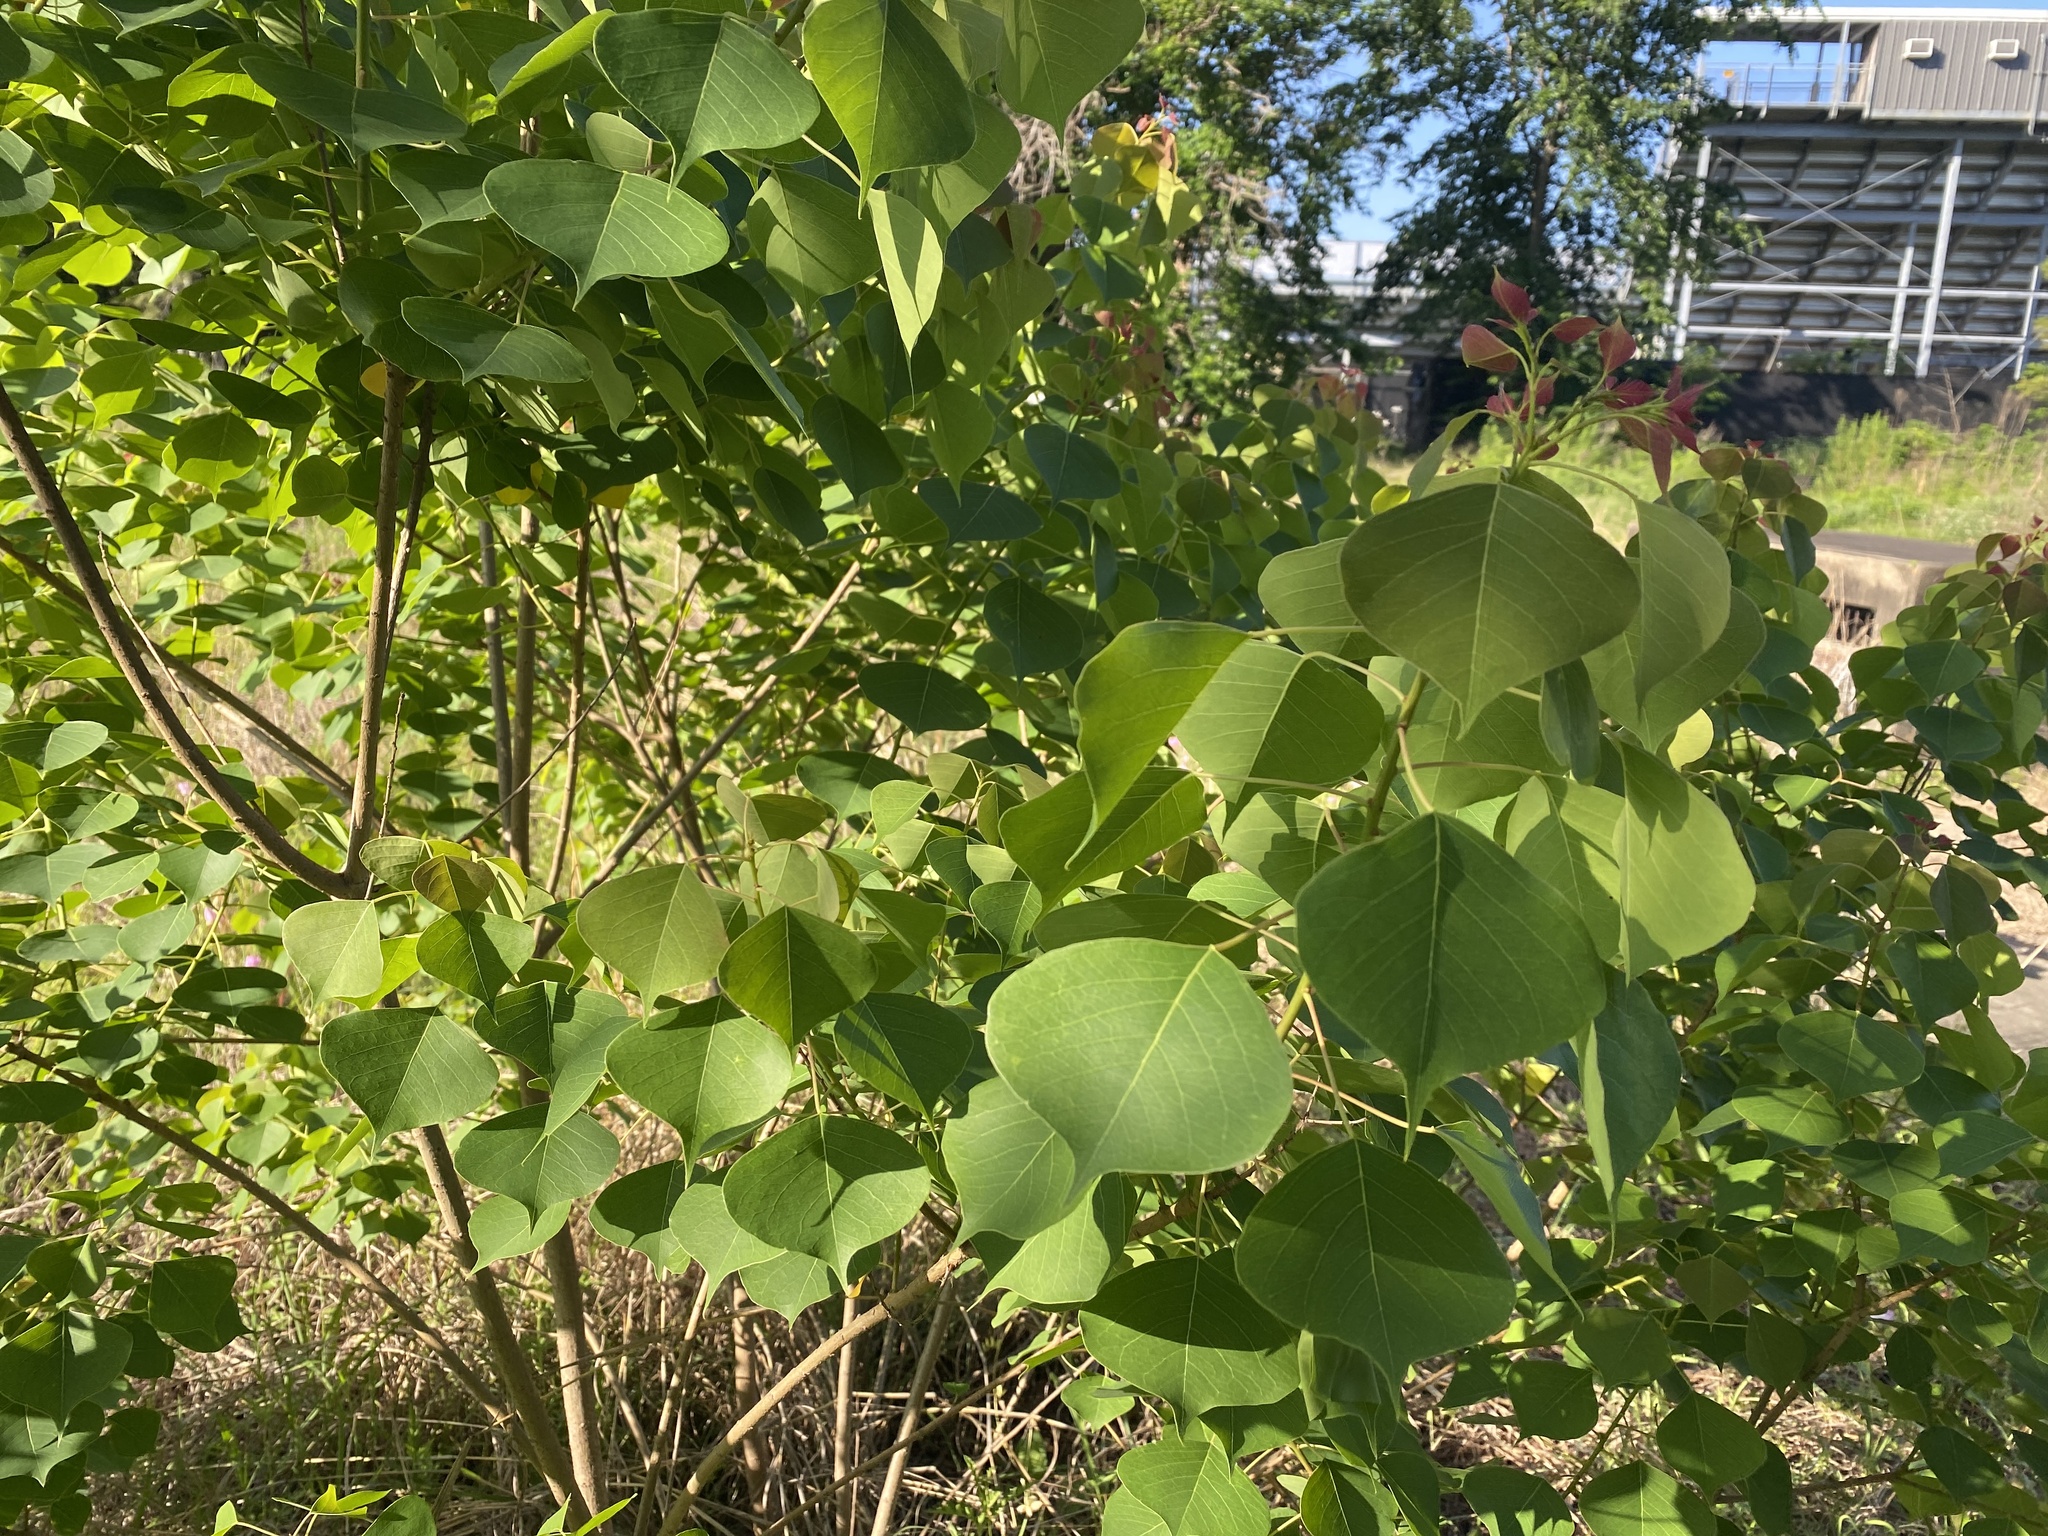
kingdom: Plantae
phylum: Tracheophyta
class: Magnoliopsida
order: Malpighiales
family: Euphorbiaceae
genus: Triadica
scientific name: Triadica sebifera
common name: Chinese tallow
